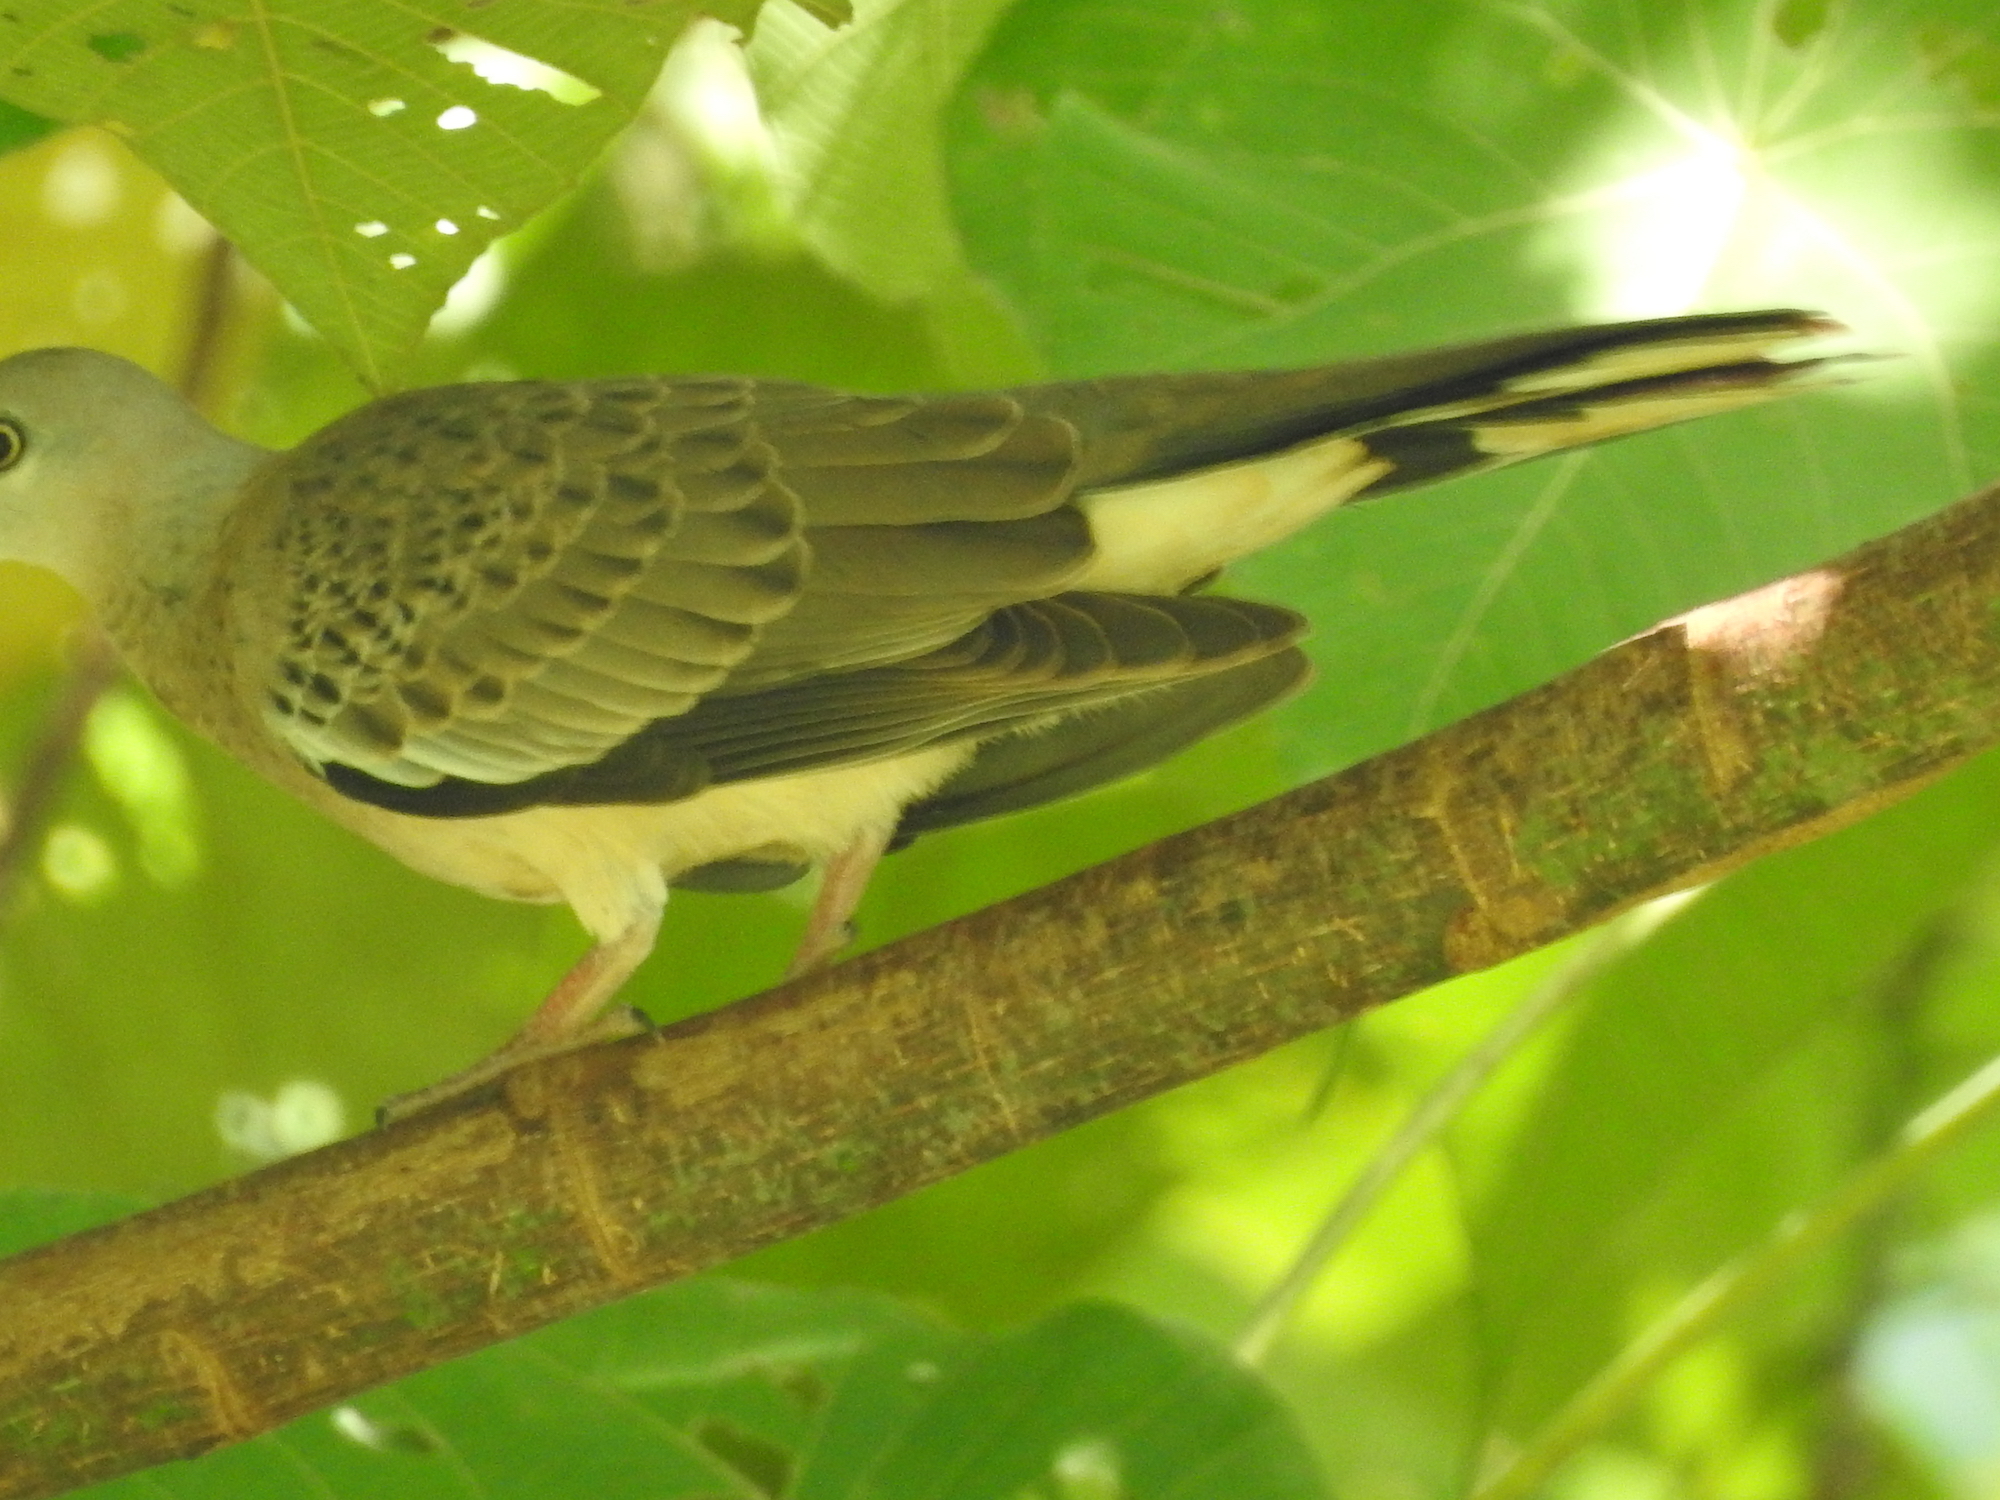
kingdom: Animalia
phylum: Chordata
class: Aves
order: Columbiformes
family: Columbidae
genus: Spilopelia
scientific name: Spilopelia chinensis
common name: Spotted dove
